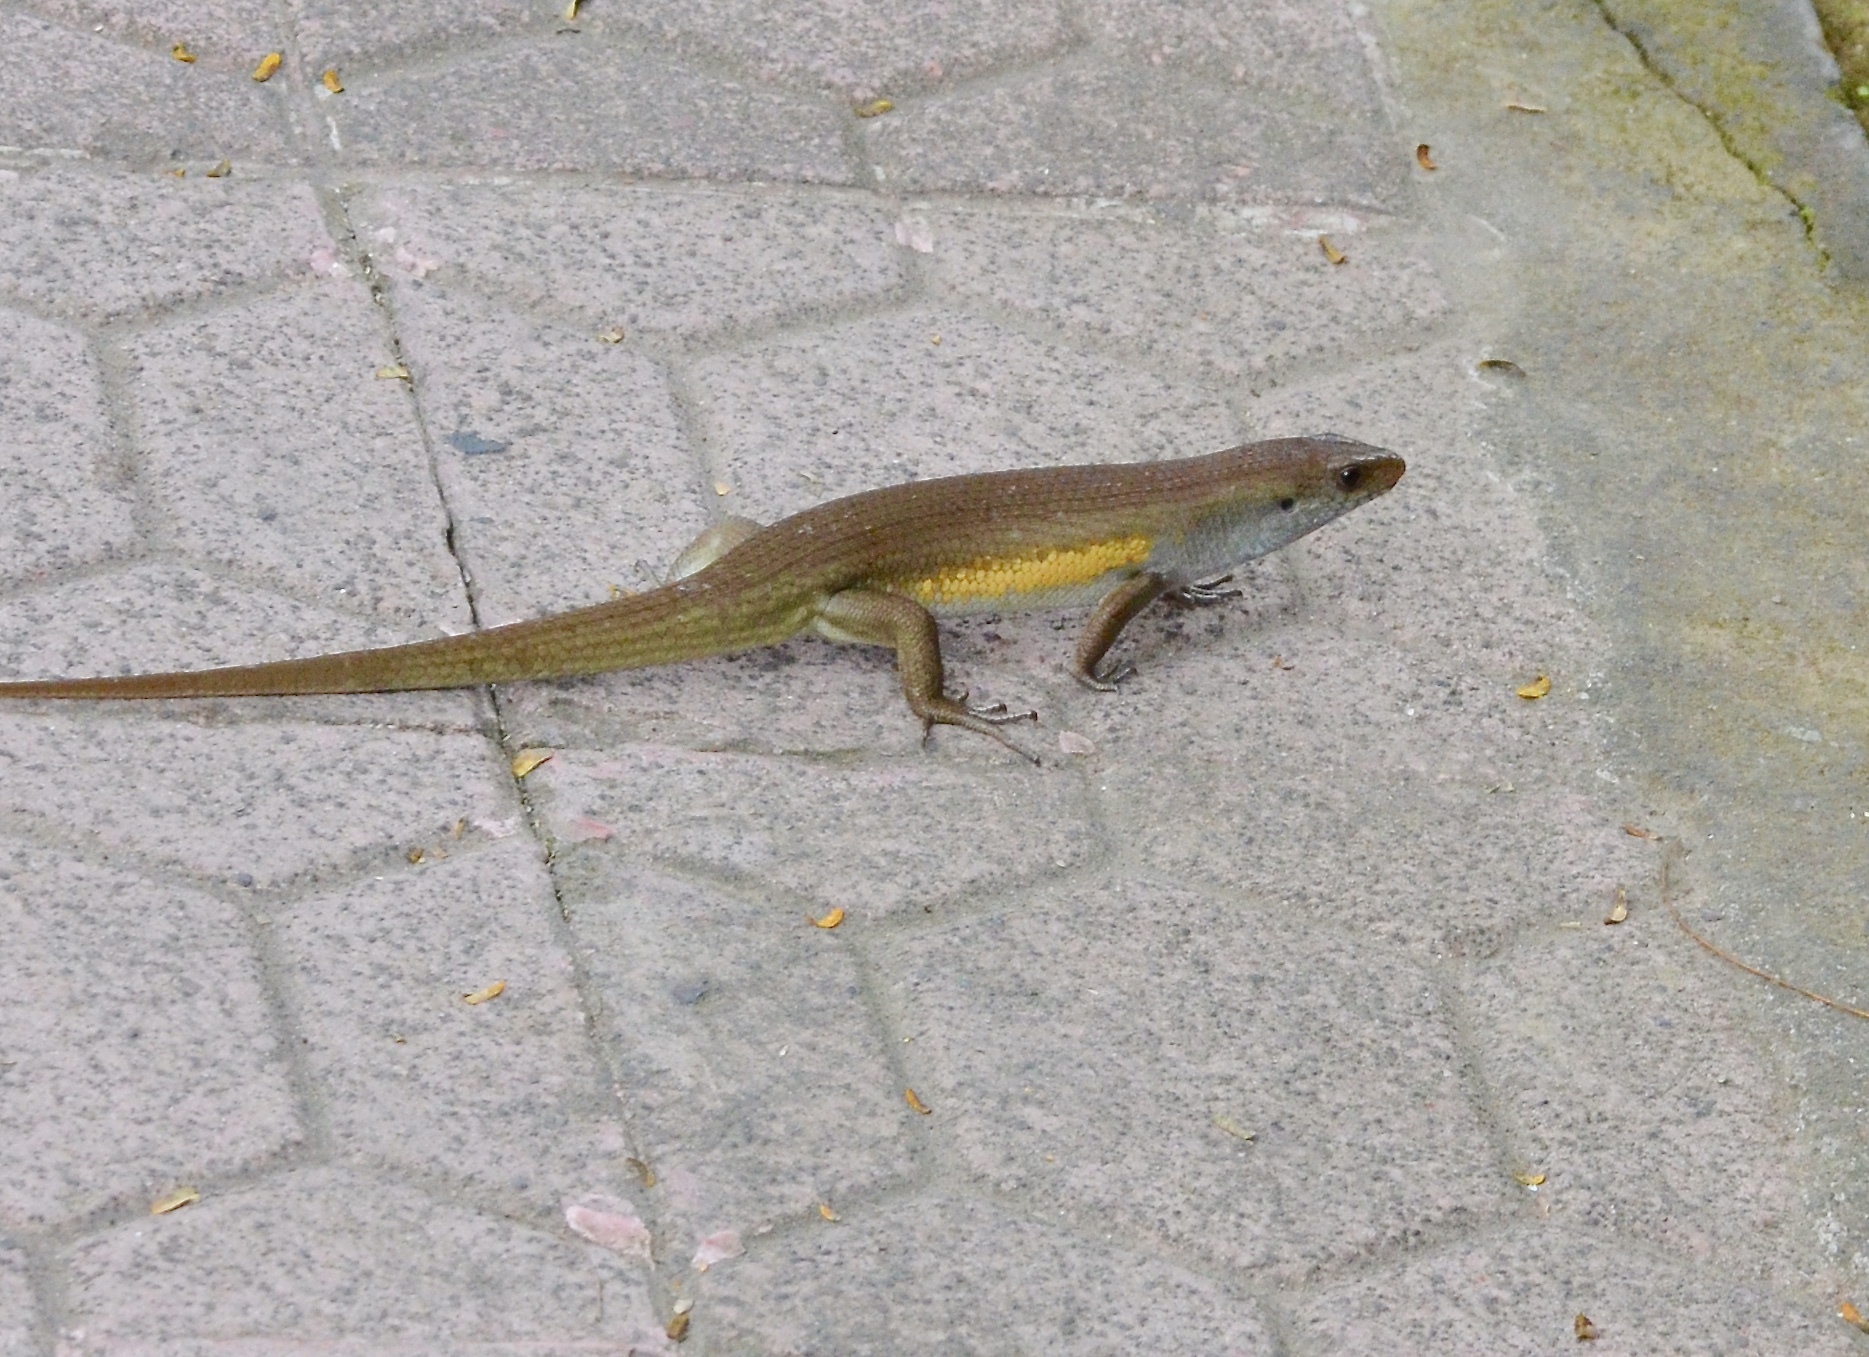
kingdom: Animalia
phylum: Chordata
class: Squamata
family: Scincidae
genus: Eutropis
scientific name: Eutropis multifasciata
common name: Common mabuya
